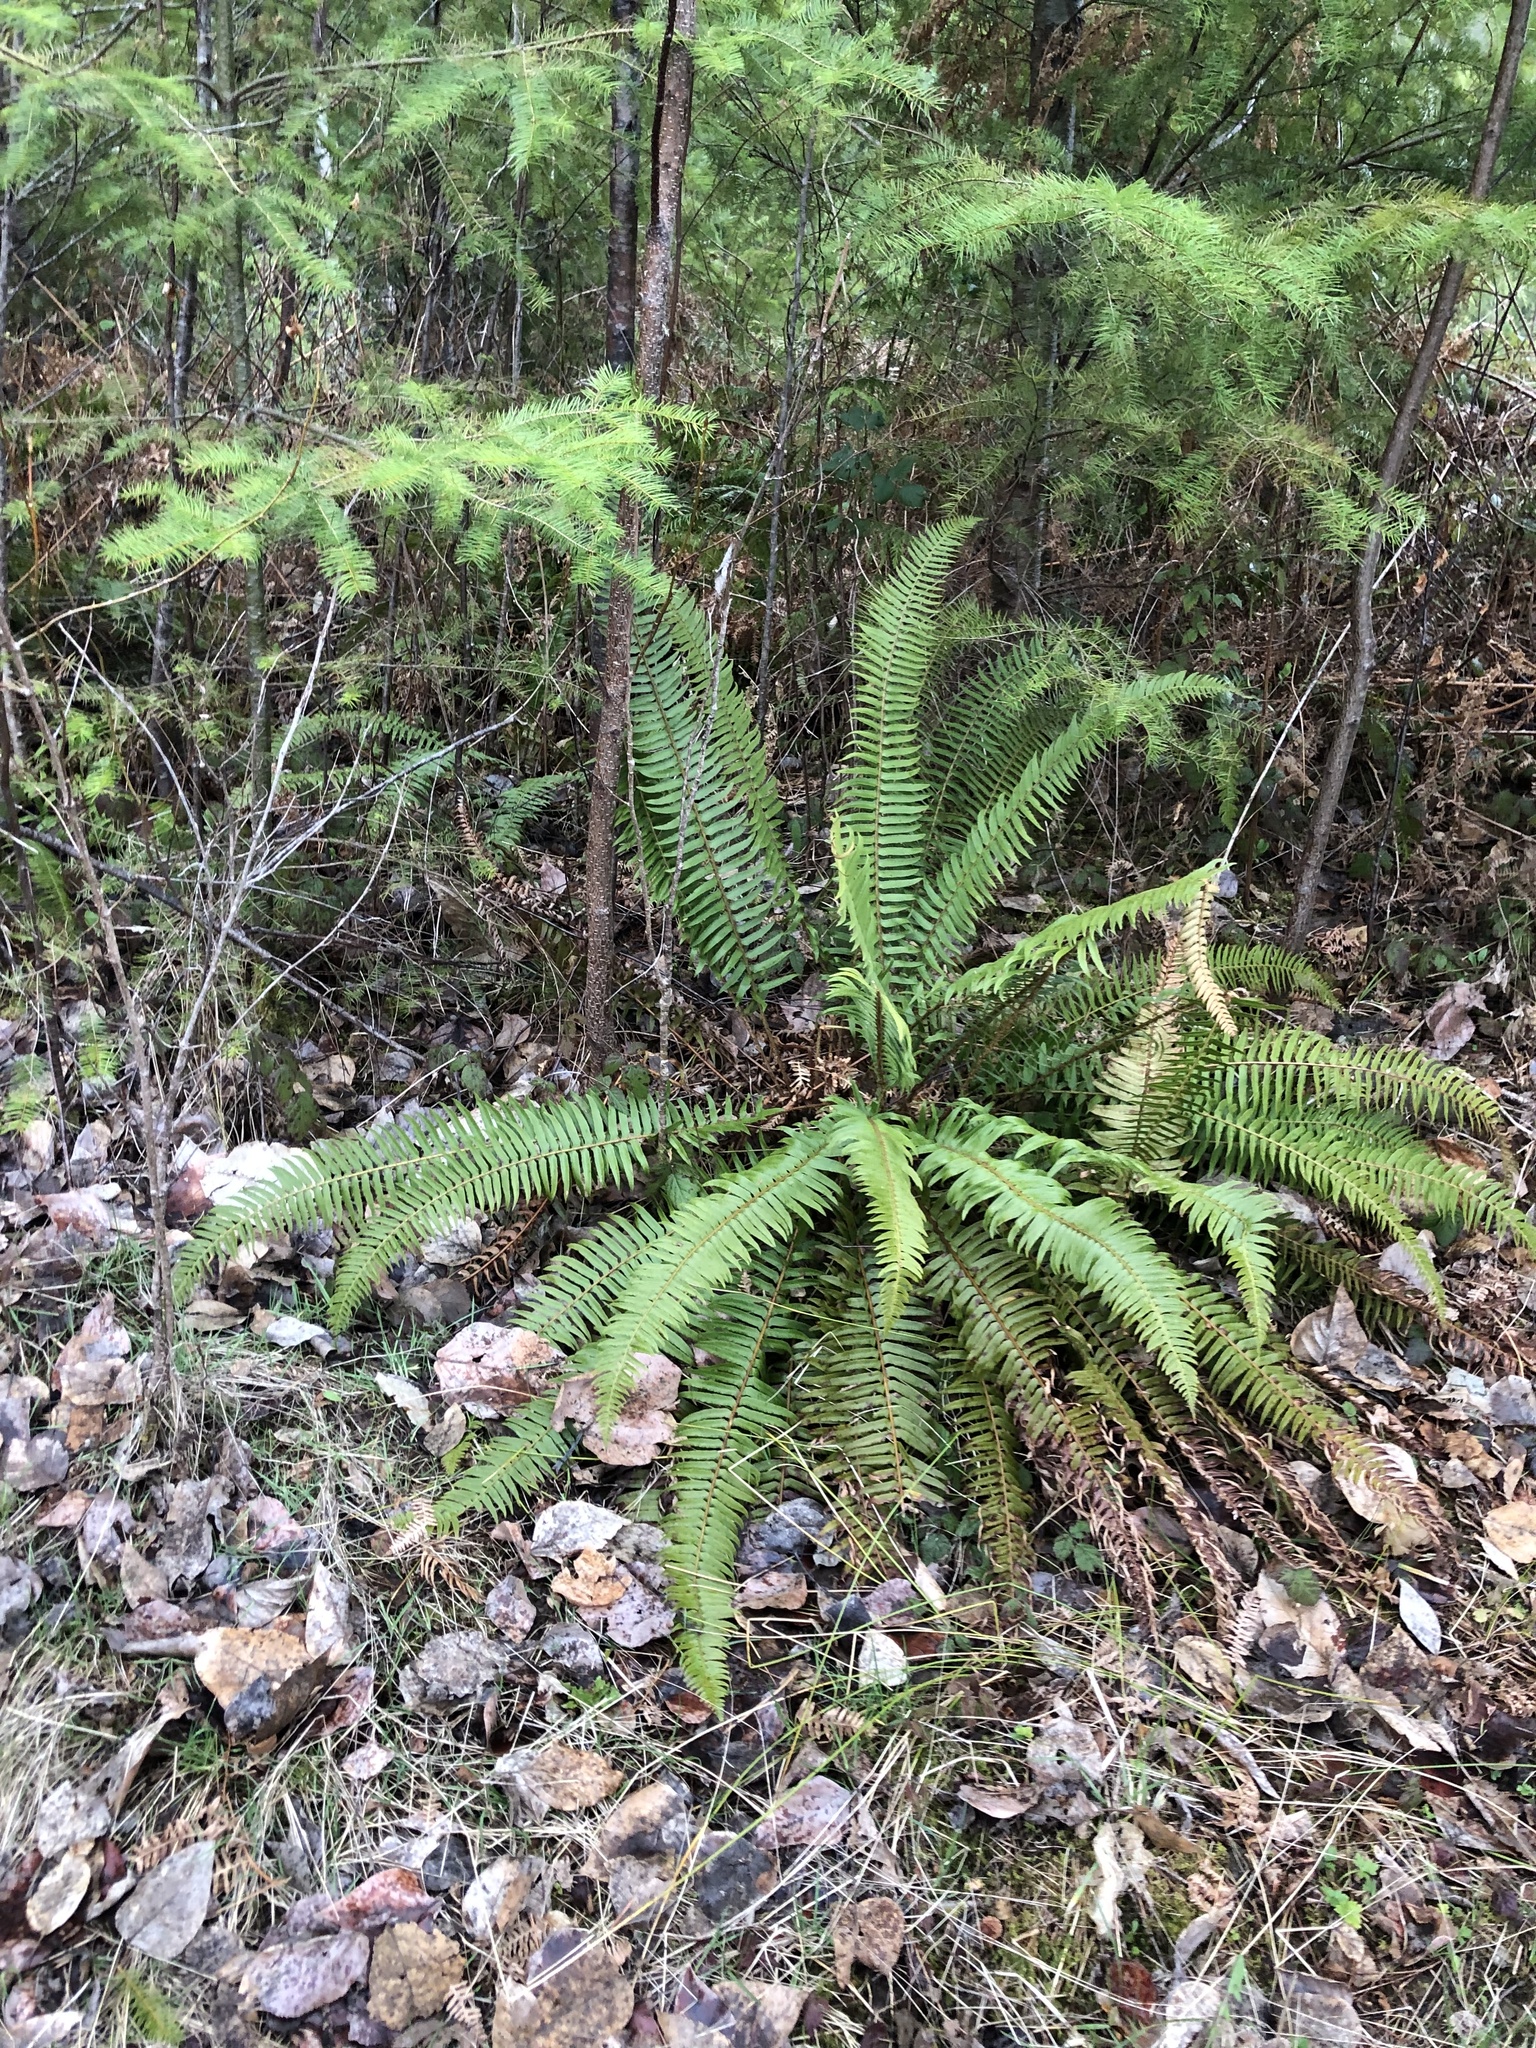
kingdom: Plantae
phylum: Tracheophyta
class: Polypodiopsida
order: Polypodiales
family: Dryopteridaceae
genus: Polystichum
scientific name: Polystichum munitum
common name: Western sword-fern
